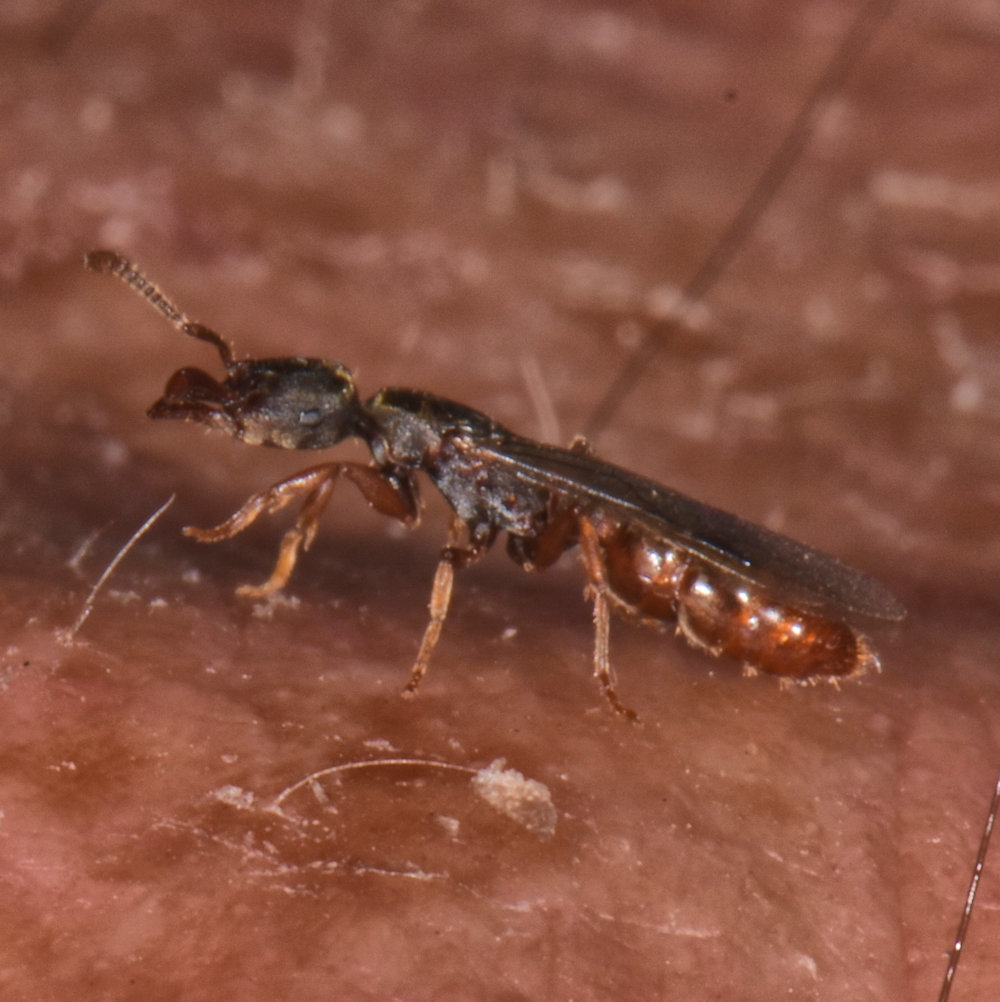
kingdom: Animalia
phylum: Arthropoda
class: Insecta
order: Hymenoptera
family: Formicidae
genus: Stigmatomma
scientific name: Stigmatomma pallipes
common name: Vampire ant
